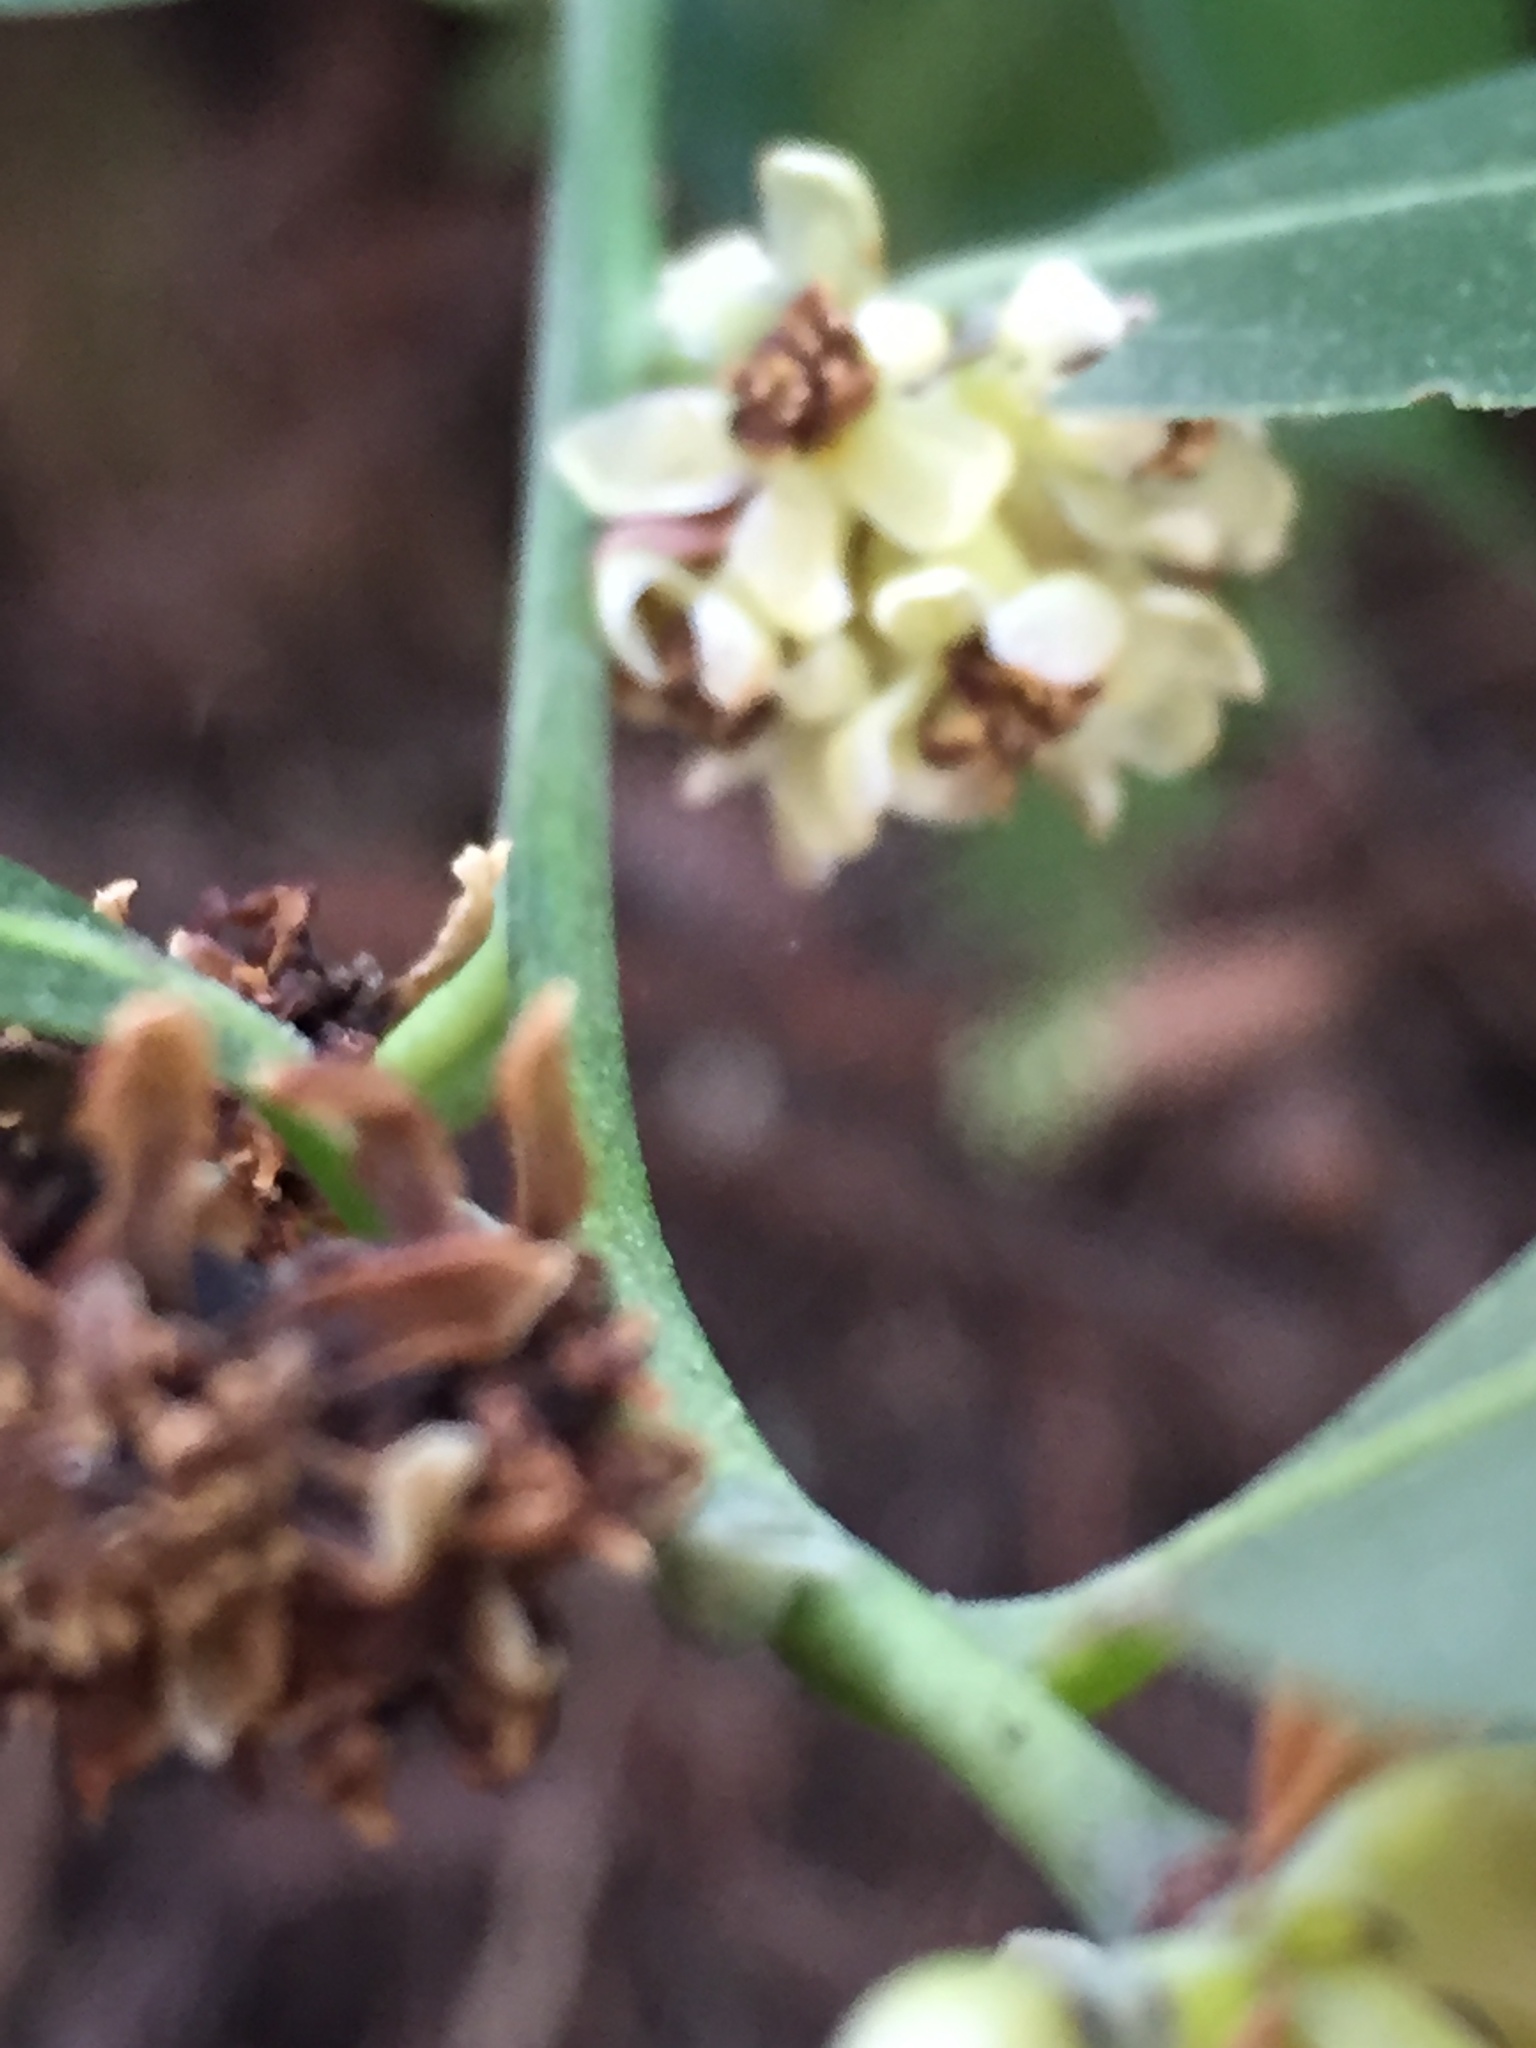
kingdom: Plantae
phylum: Tracheophyta
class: Magnoliopsida
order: Laurales
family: Lauraceae
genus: Umbellularia
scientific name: Umbellularia californica
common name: California bay
